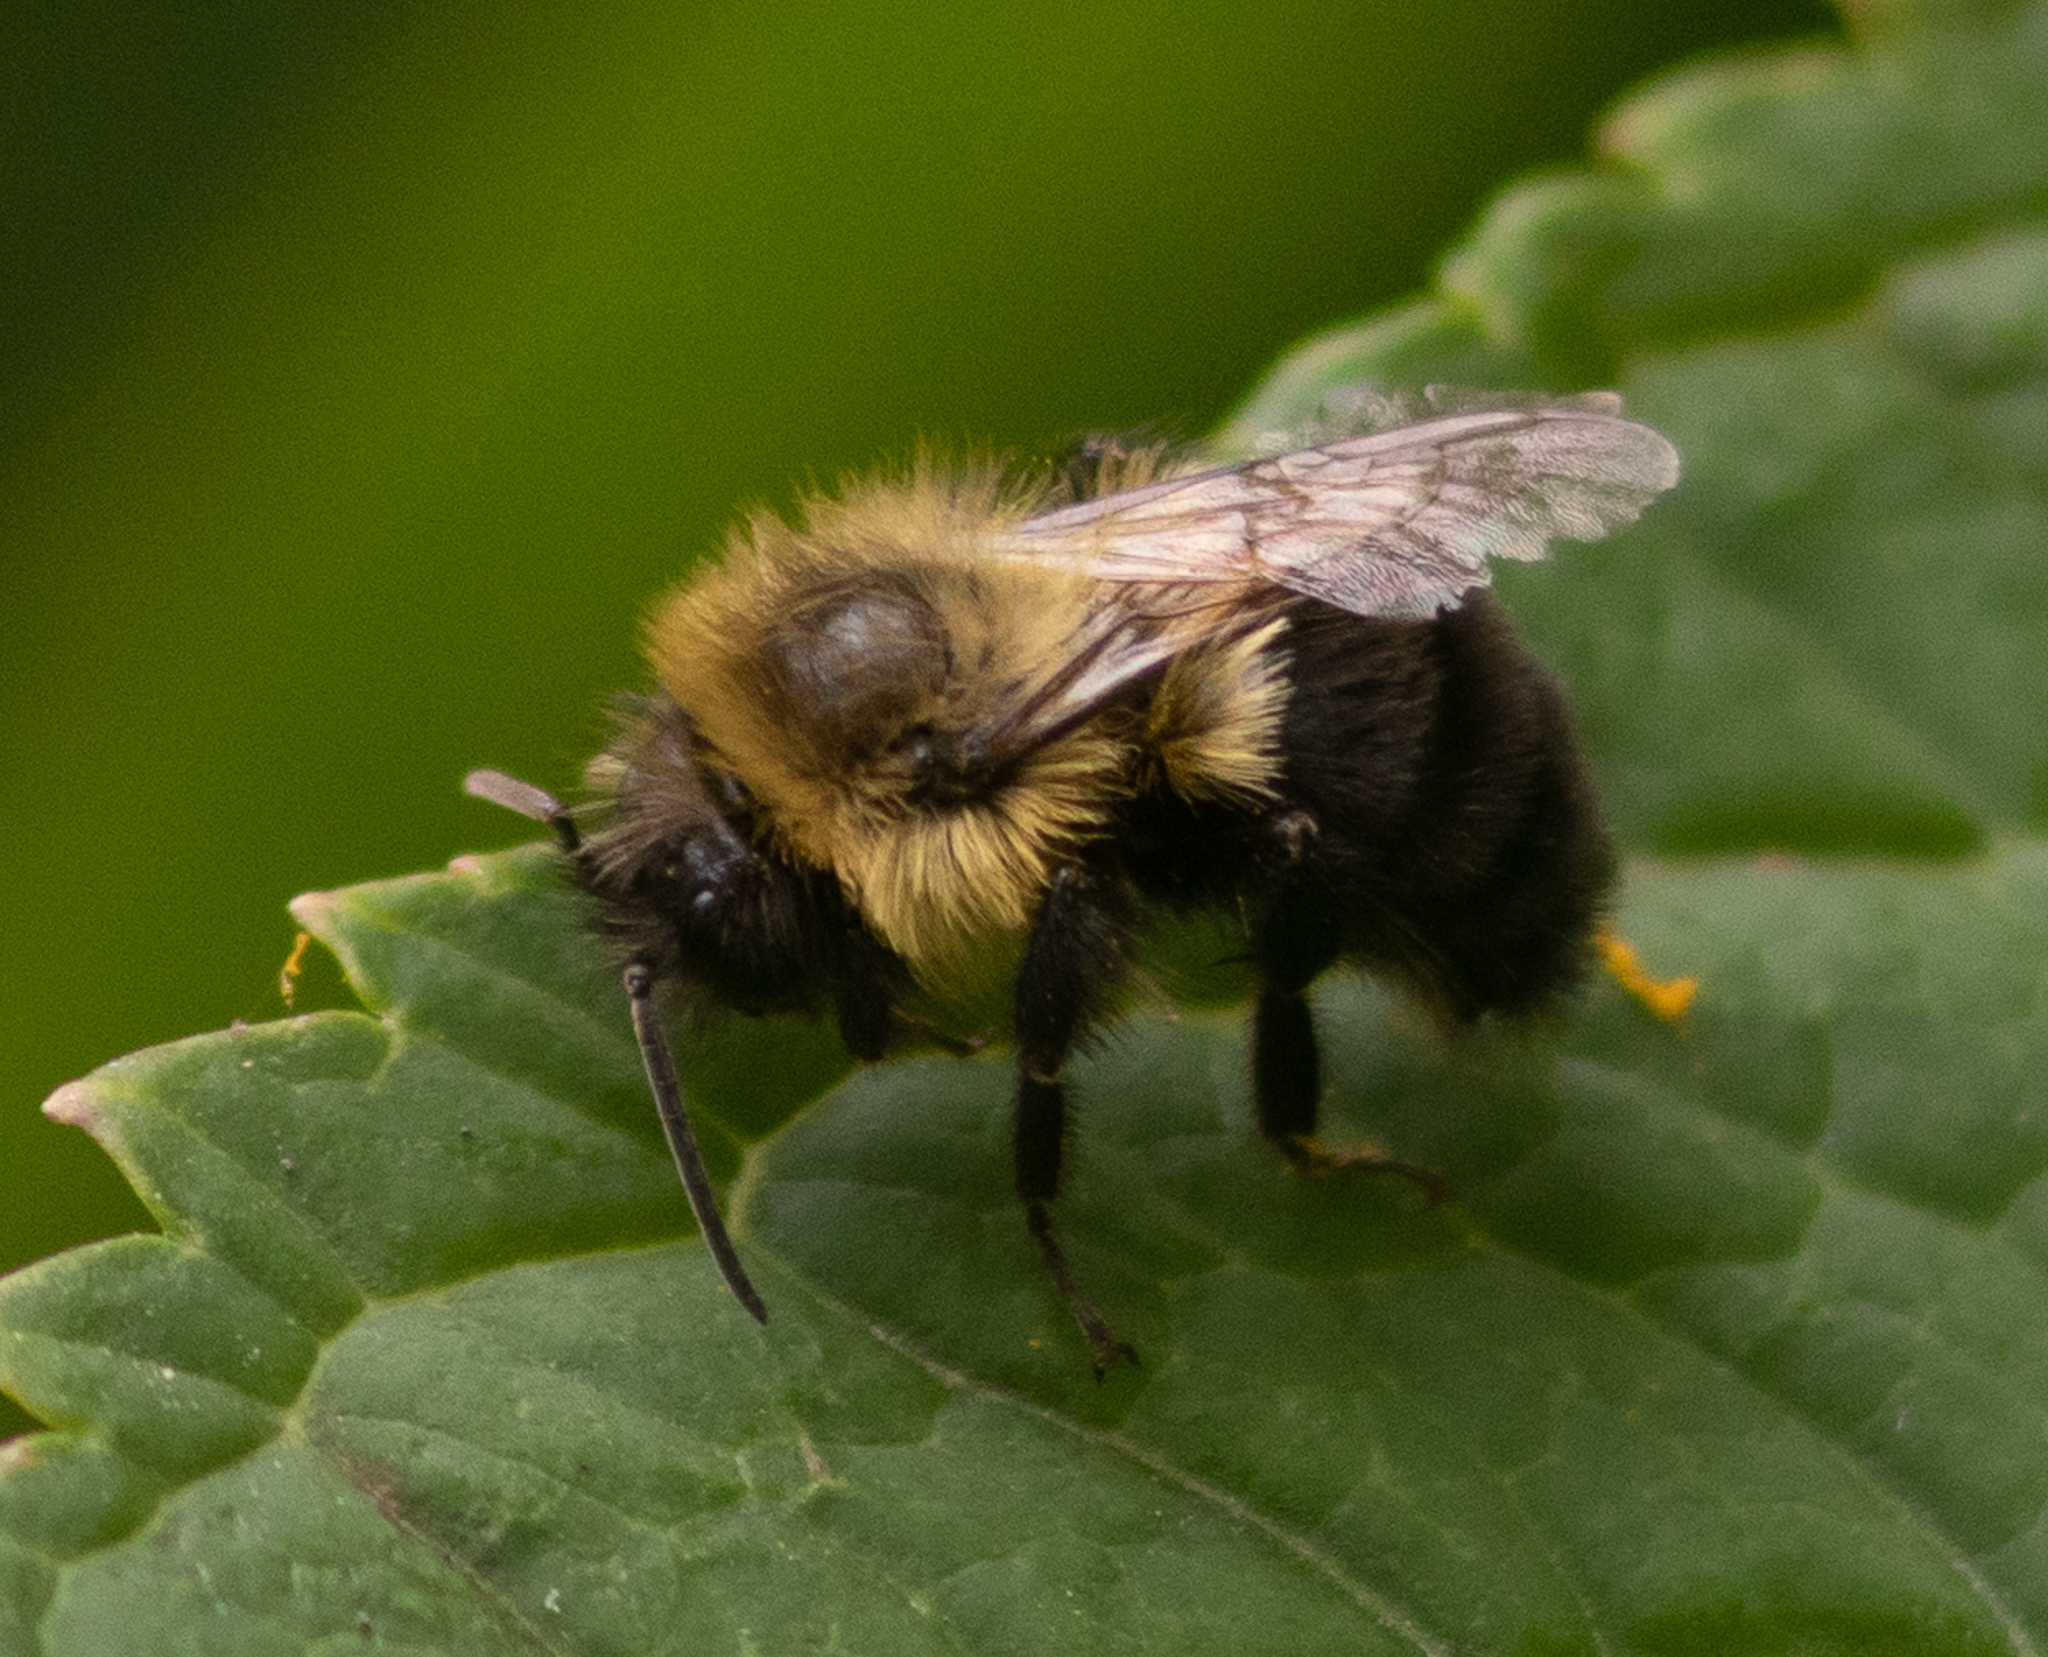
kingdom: Animalia
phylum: Arthropoda
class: Insecta
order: Hymenoptera
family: Apidae
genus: Bombus
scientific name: Bombus impatiens
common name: Common eastern bumble bee
